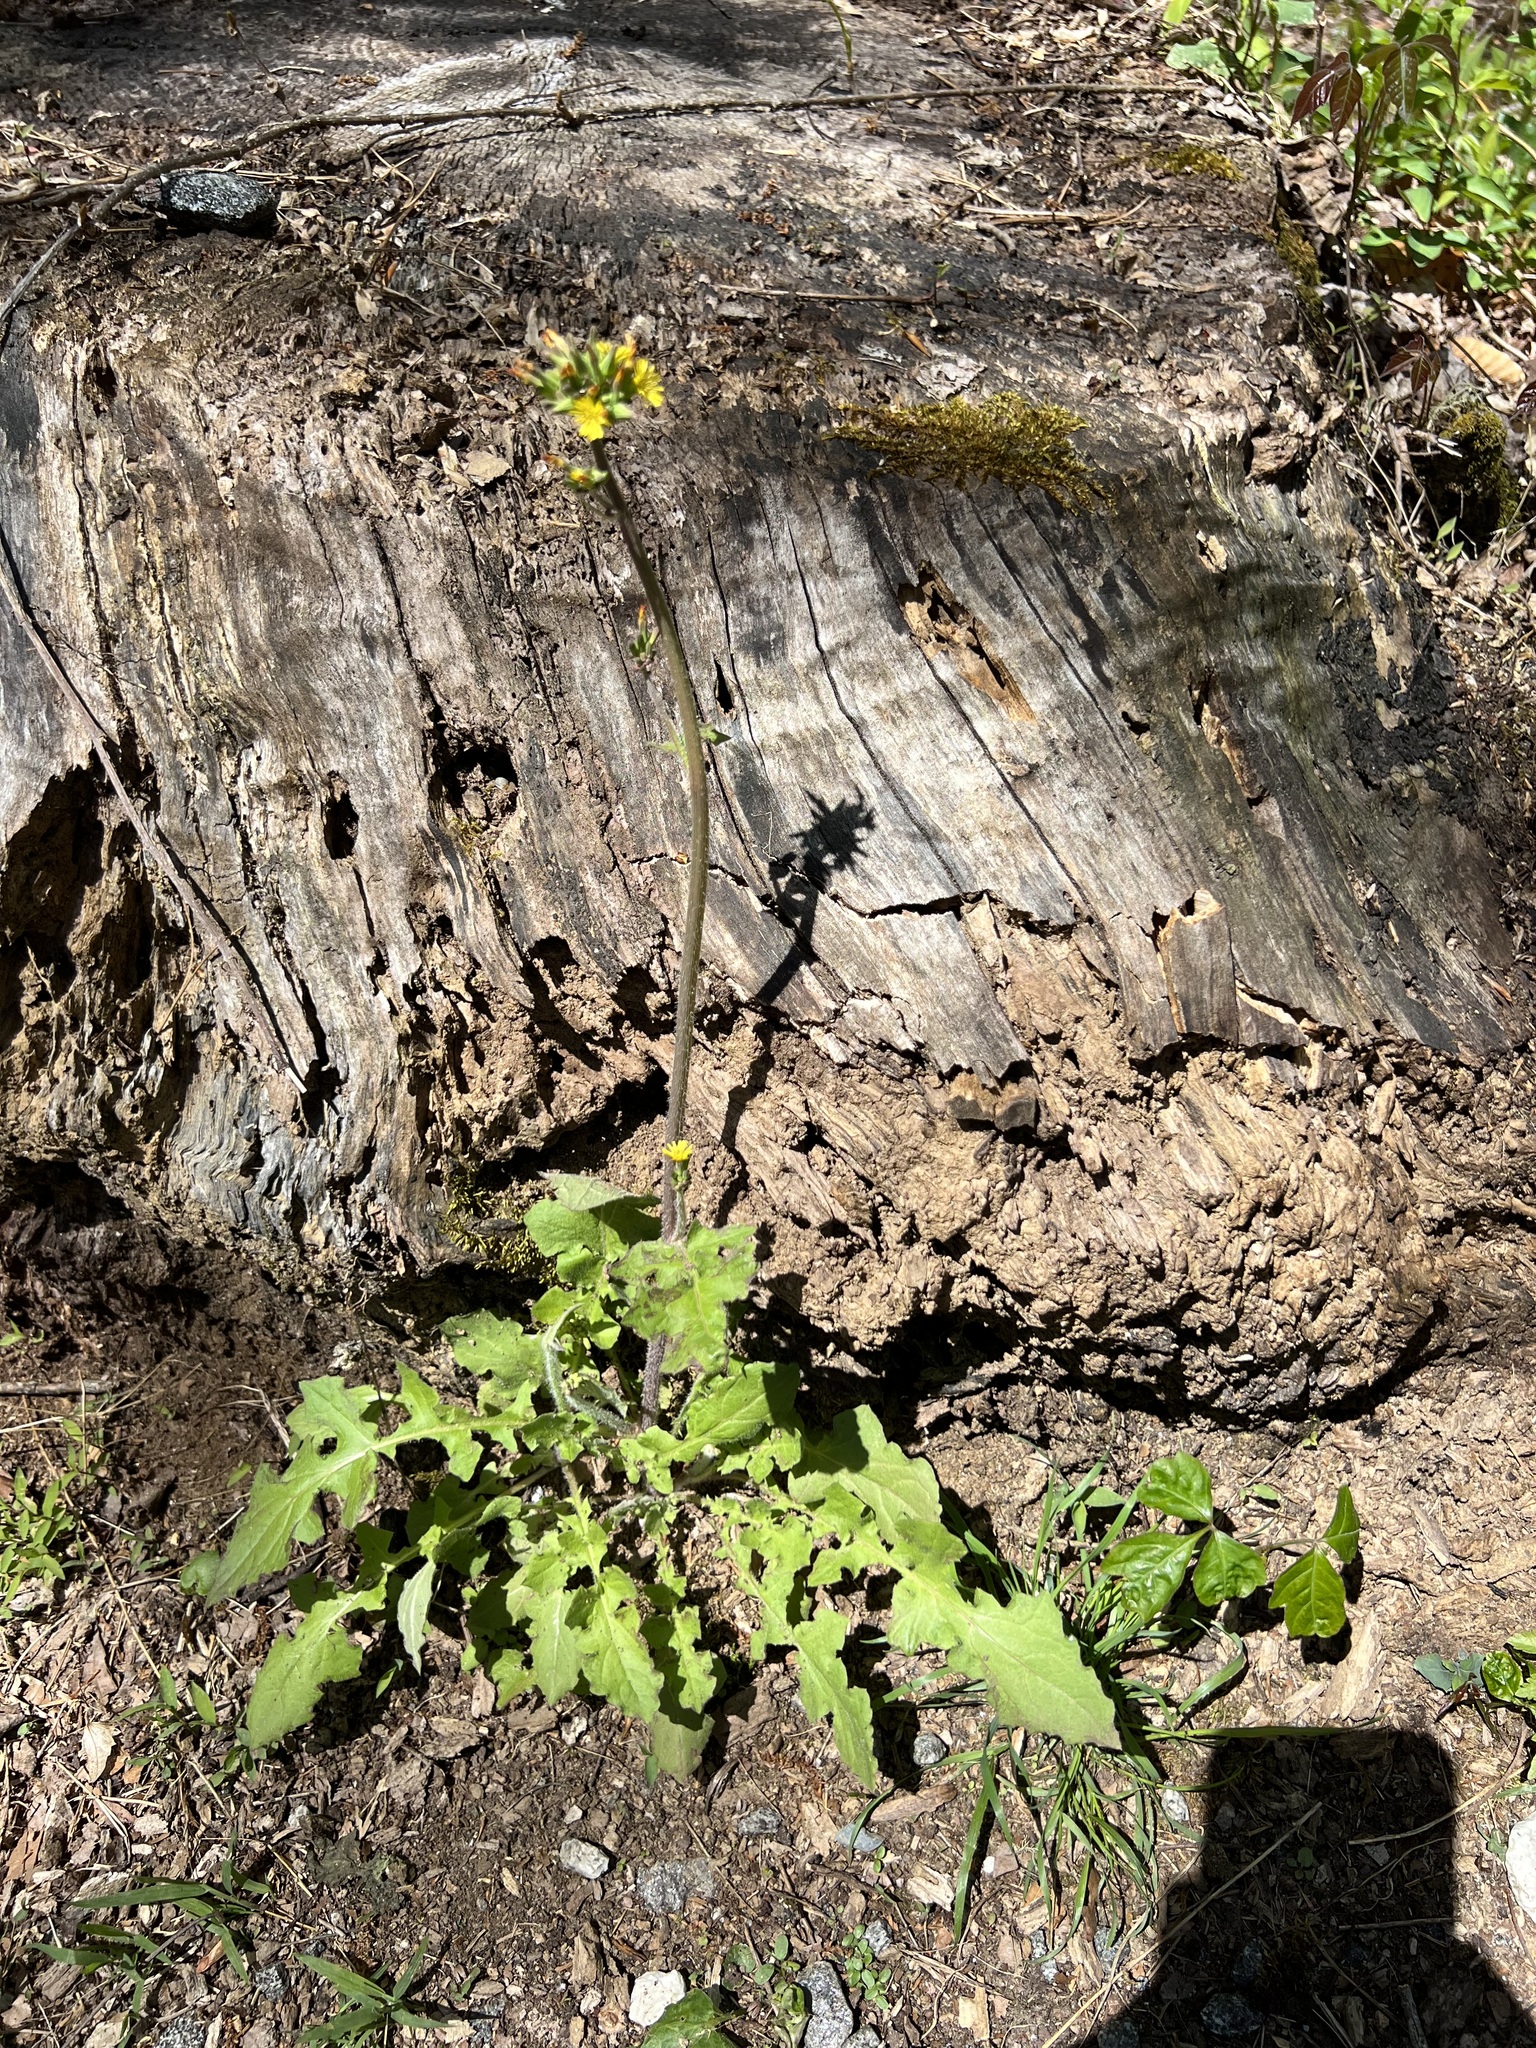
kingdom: Plantae
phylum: Tracheophyta
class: Magnoliopsida
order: Asterales
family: Asteraceae
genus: Youngia
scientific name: Youngia japonica
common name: Oriental false hawksbeard
